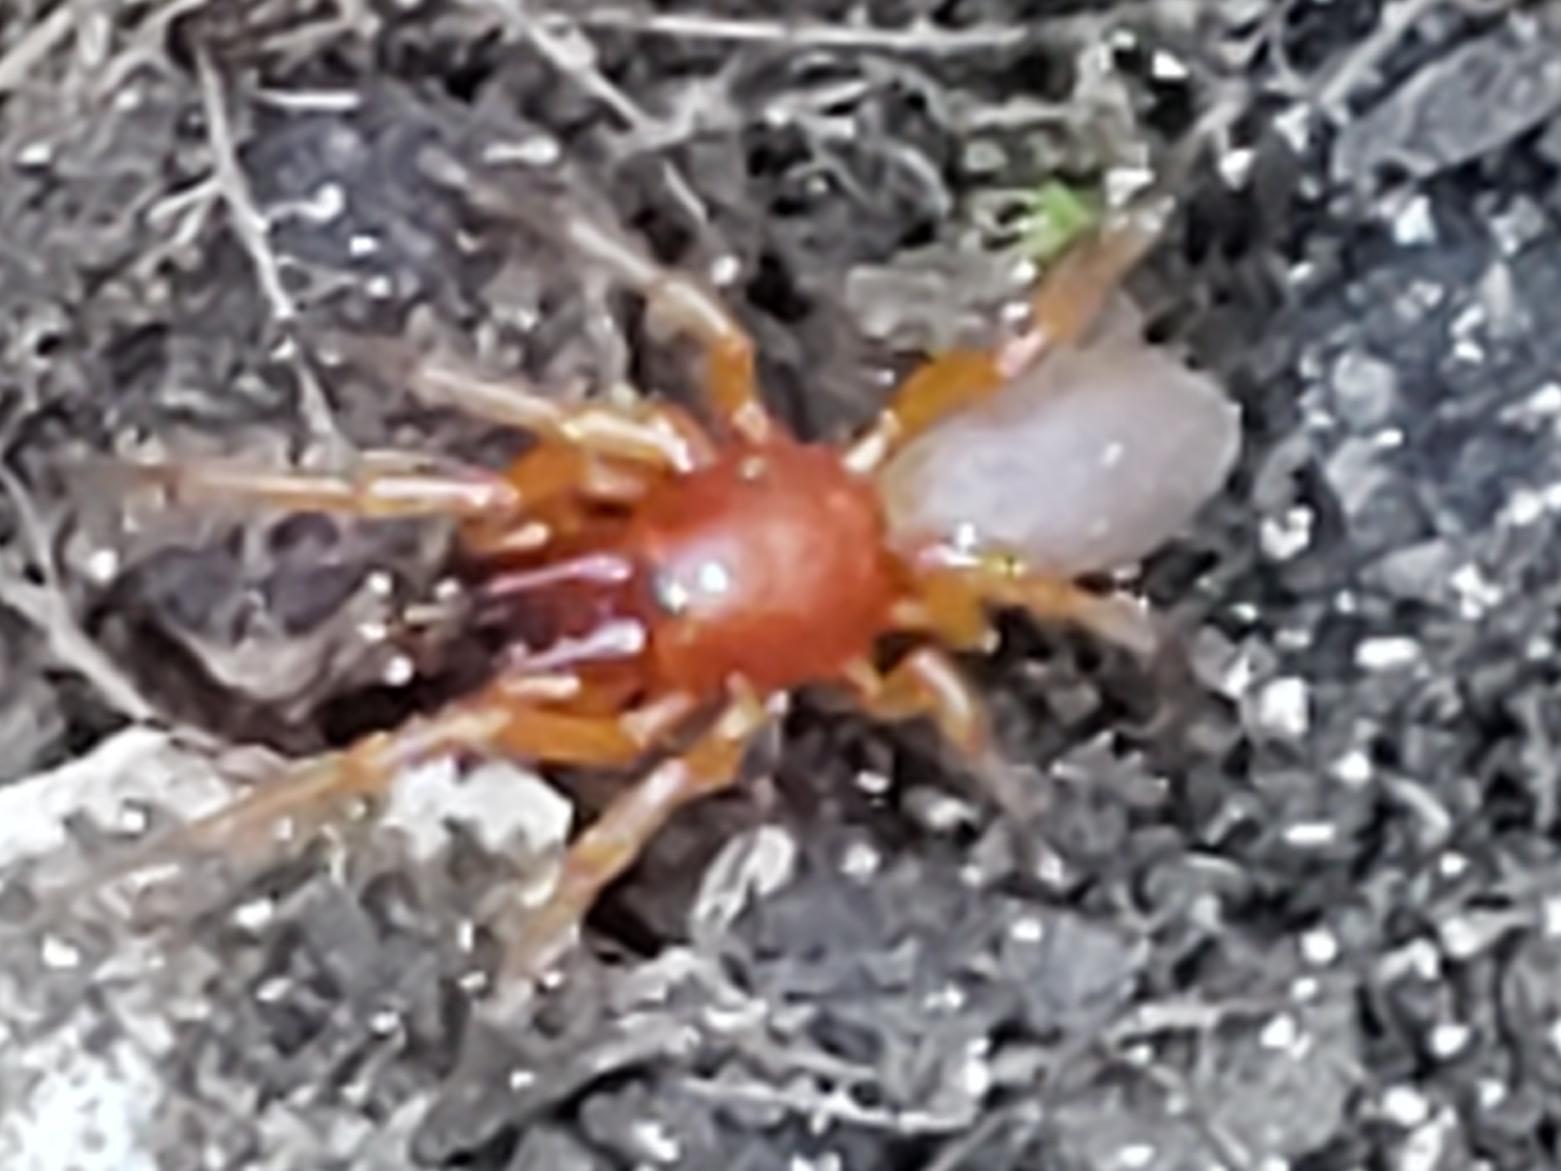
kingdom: Animalia
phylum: Arthropoda
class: Arachnida
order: Araneae
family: Dysderidae
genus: Dysdera
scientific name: Dysdera crocata
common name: Woodlouse spider
